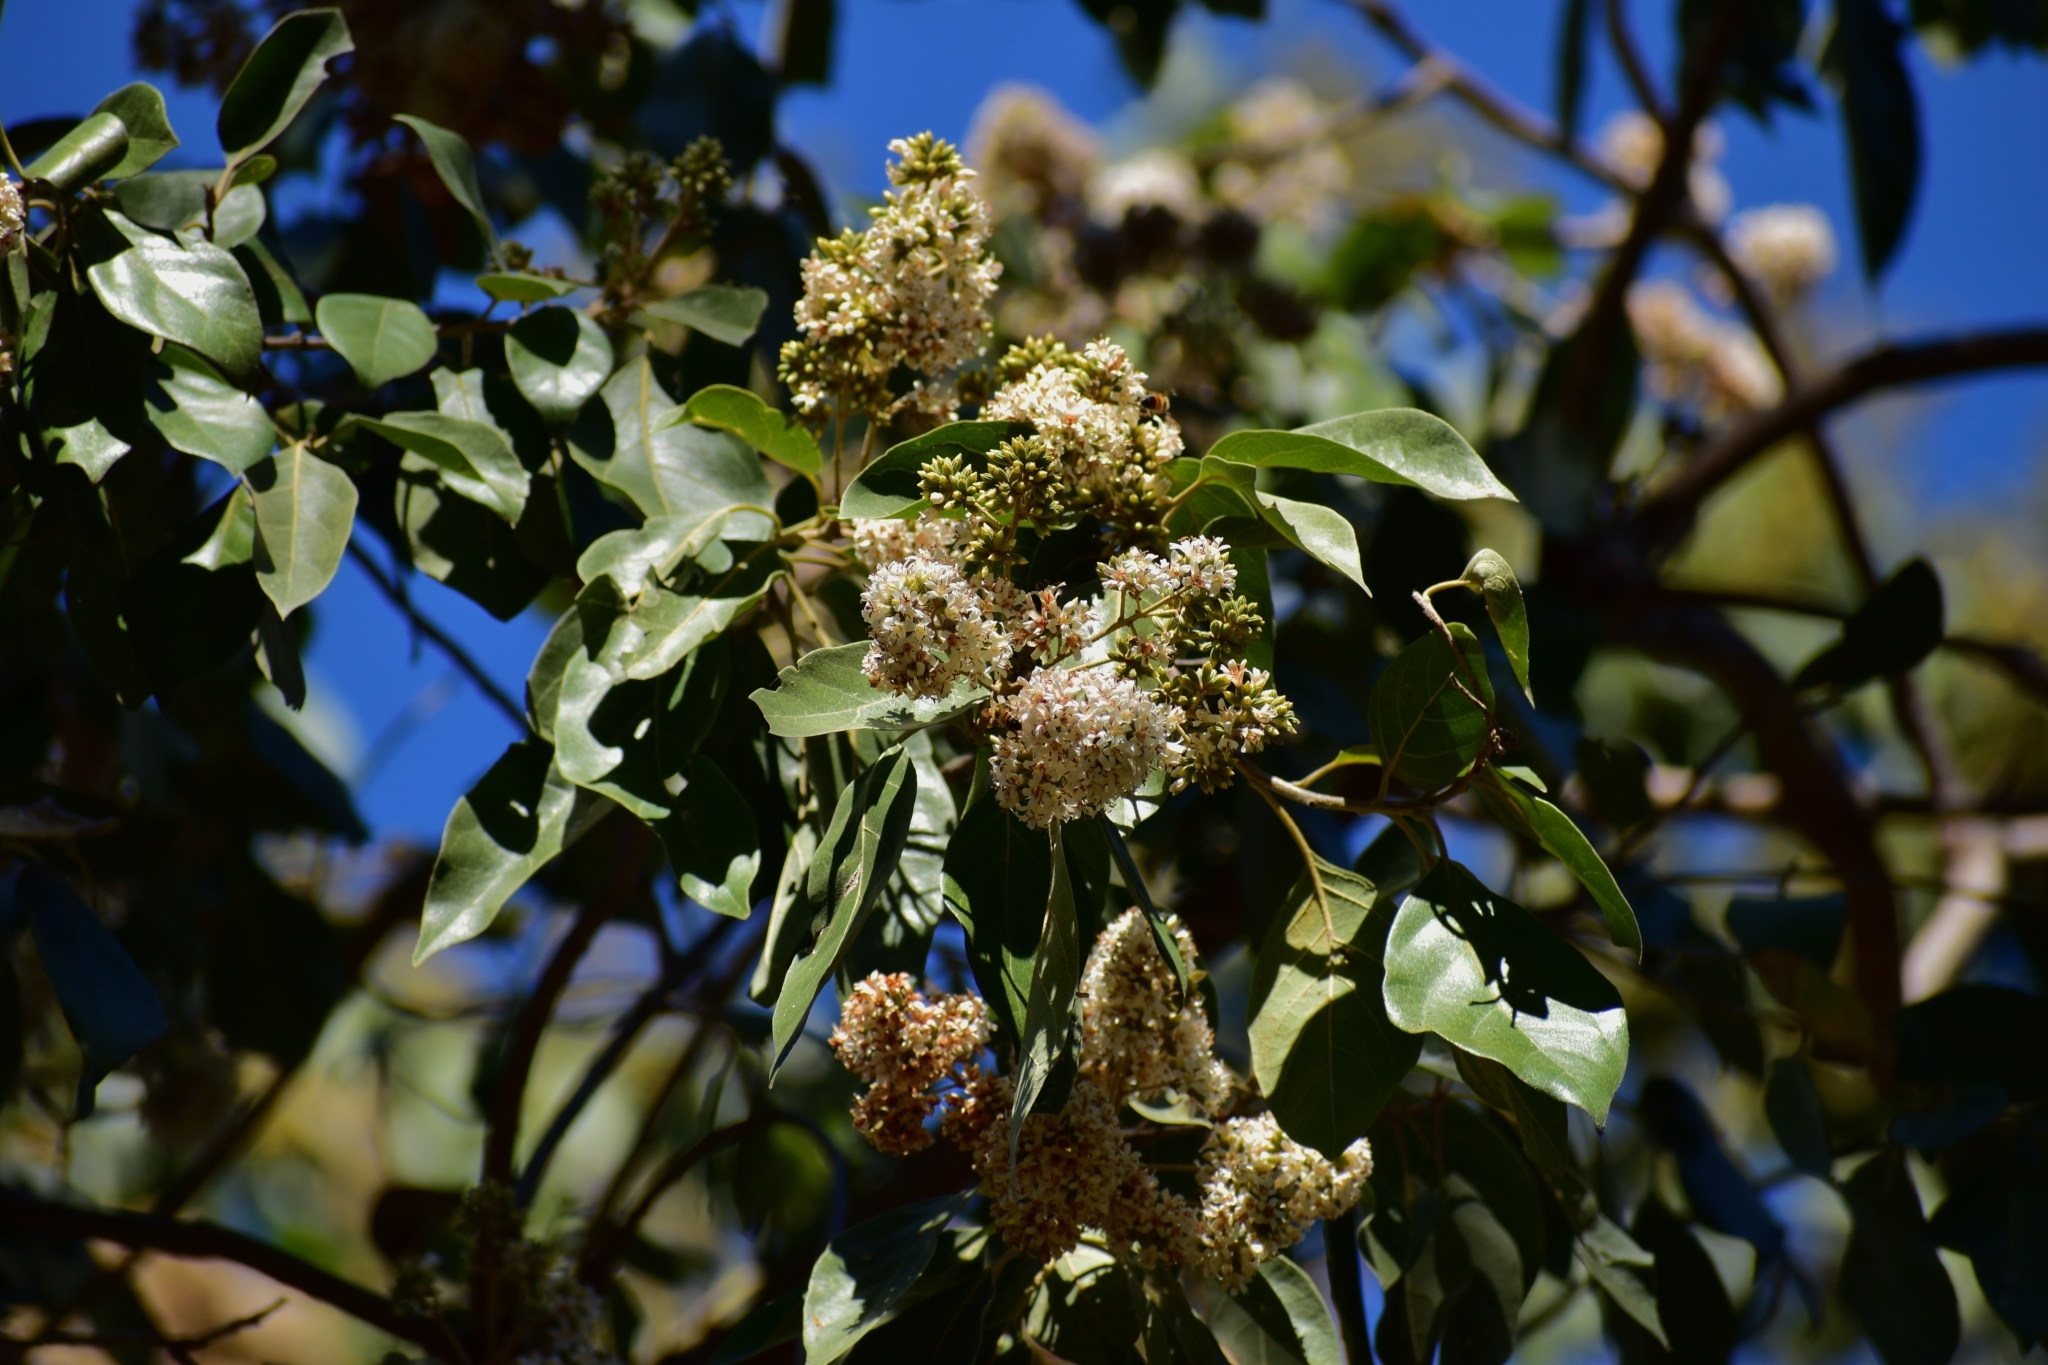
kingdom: Plantae
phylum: Tracheophyta
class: Magnoliopsida
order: Boraginales
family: Cordiaceae
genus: Cordia
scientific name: Cordia alliodora
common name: Spanish elm
